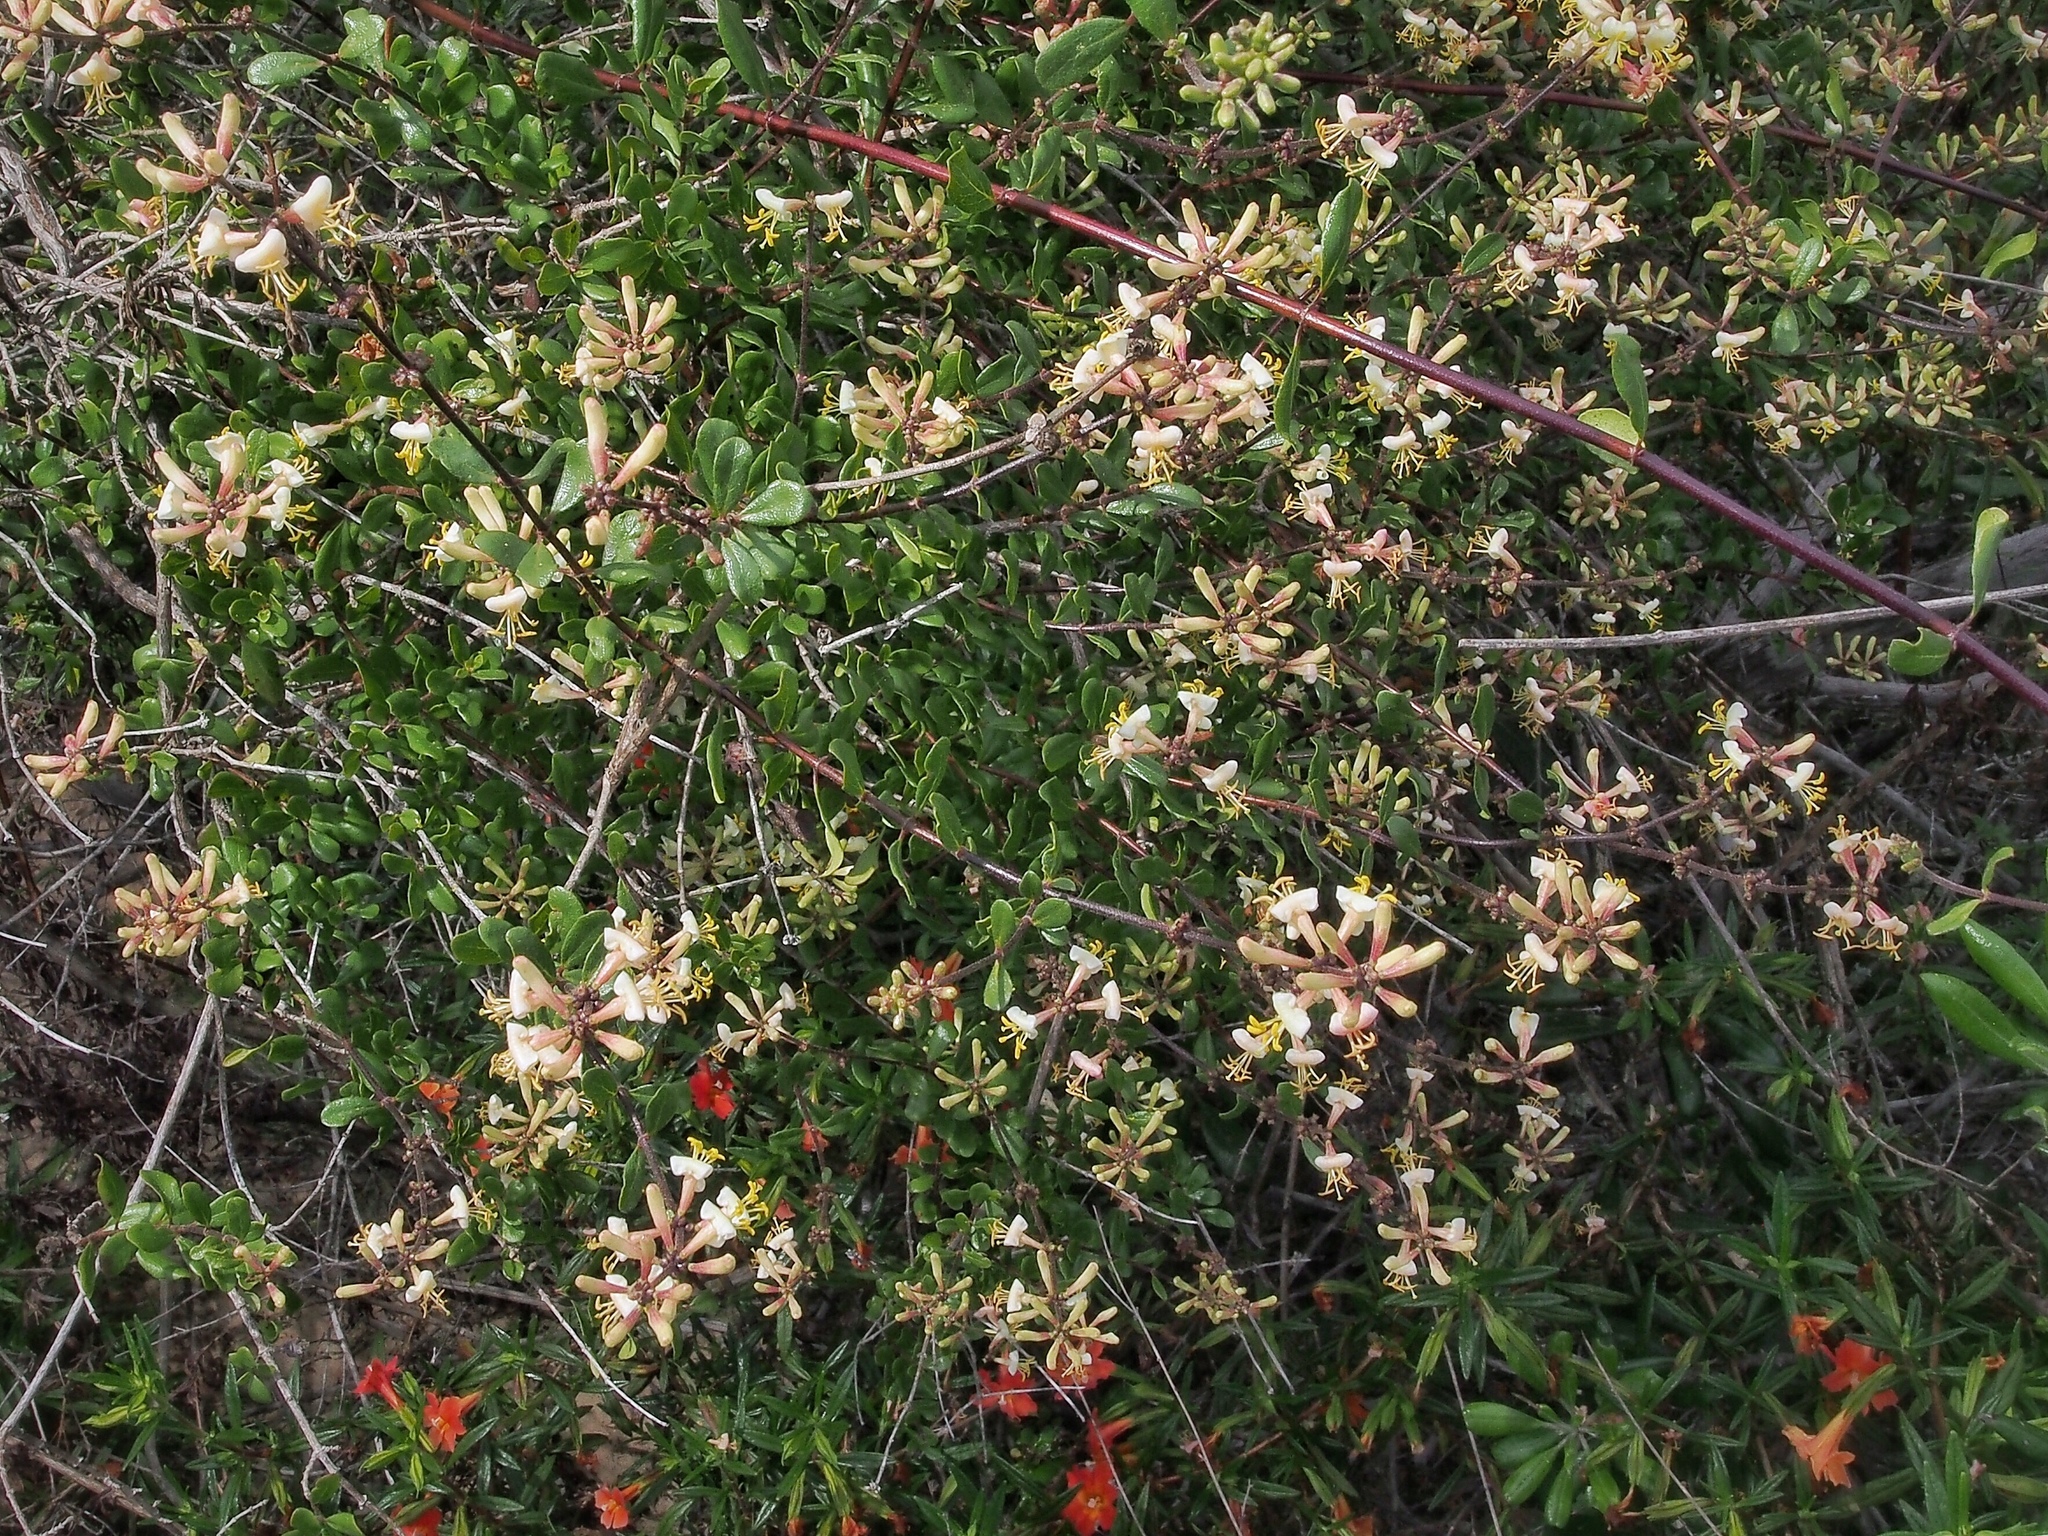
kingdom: Plantae
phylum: Tracheophyta
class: Magnoliopsida
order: Dipsacales
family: Caprifoliaceae
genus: Lonicera
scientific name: Lonicera subspicata
